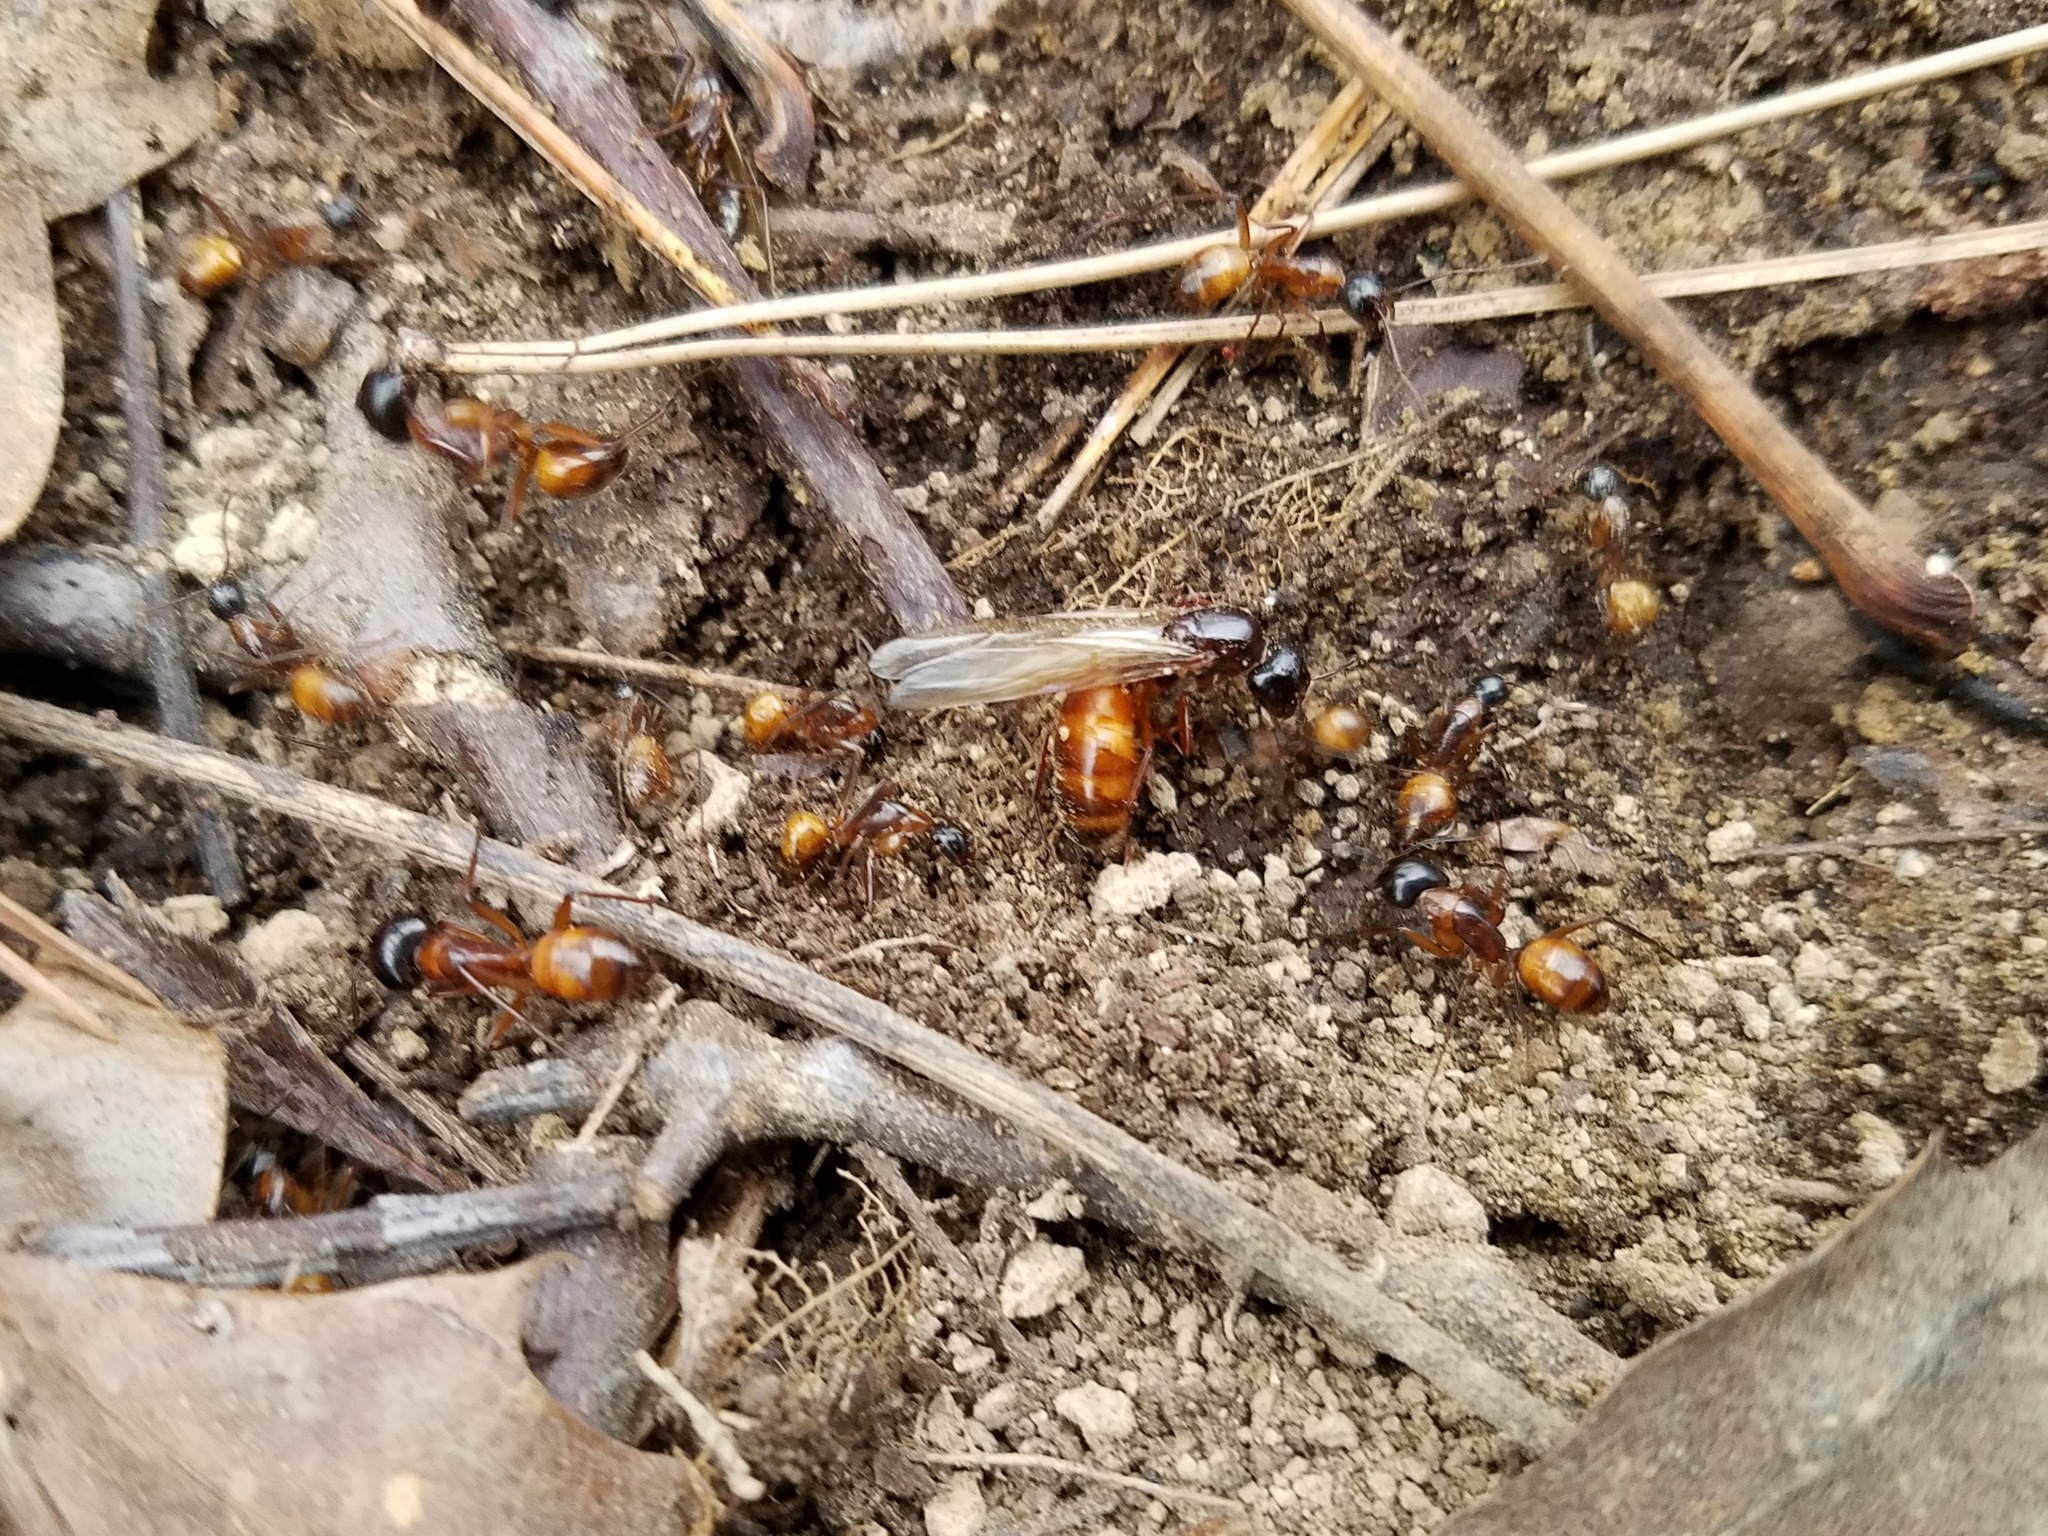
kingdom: Animalia
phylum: Arthropoda
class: Insecta
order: Hymenoptera
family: Formicidae
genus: Camponotus
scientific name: Camponotus americanus
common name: American carpenter ant
